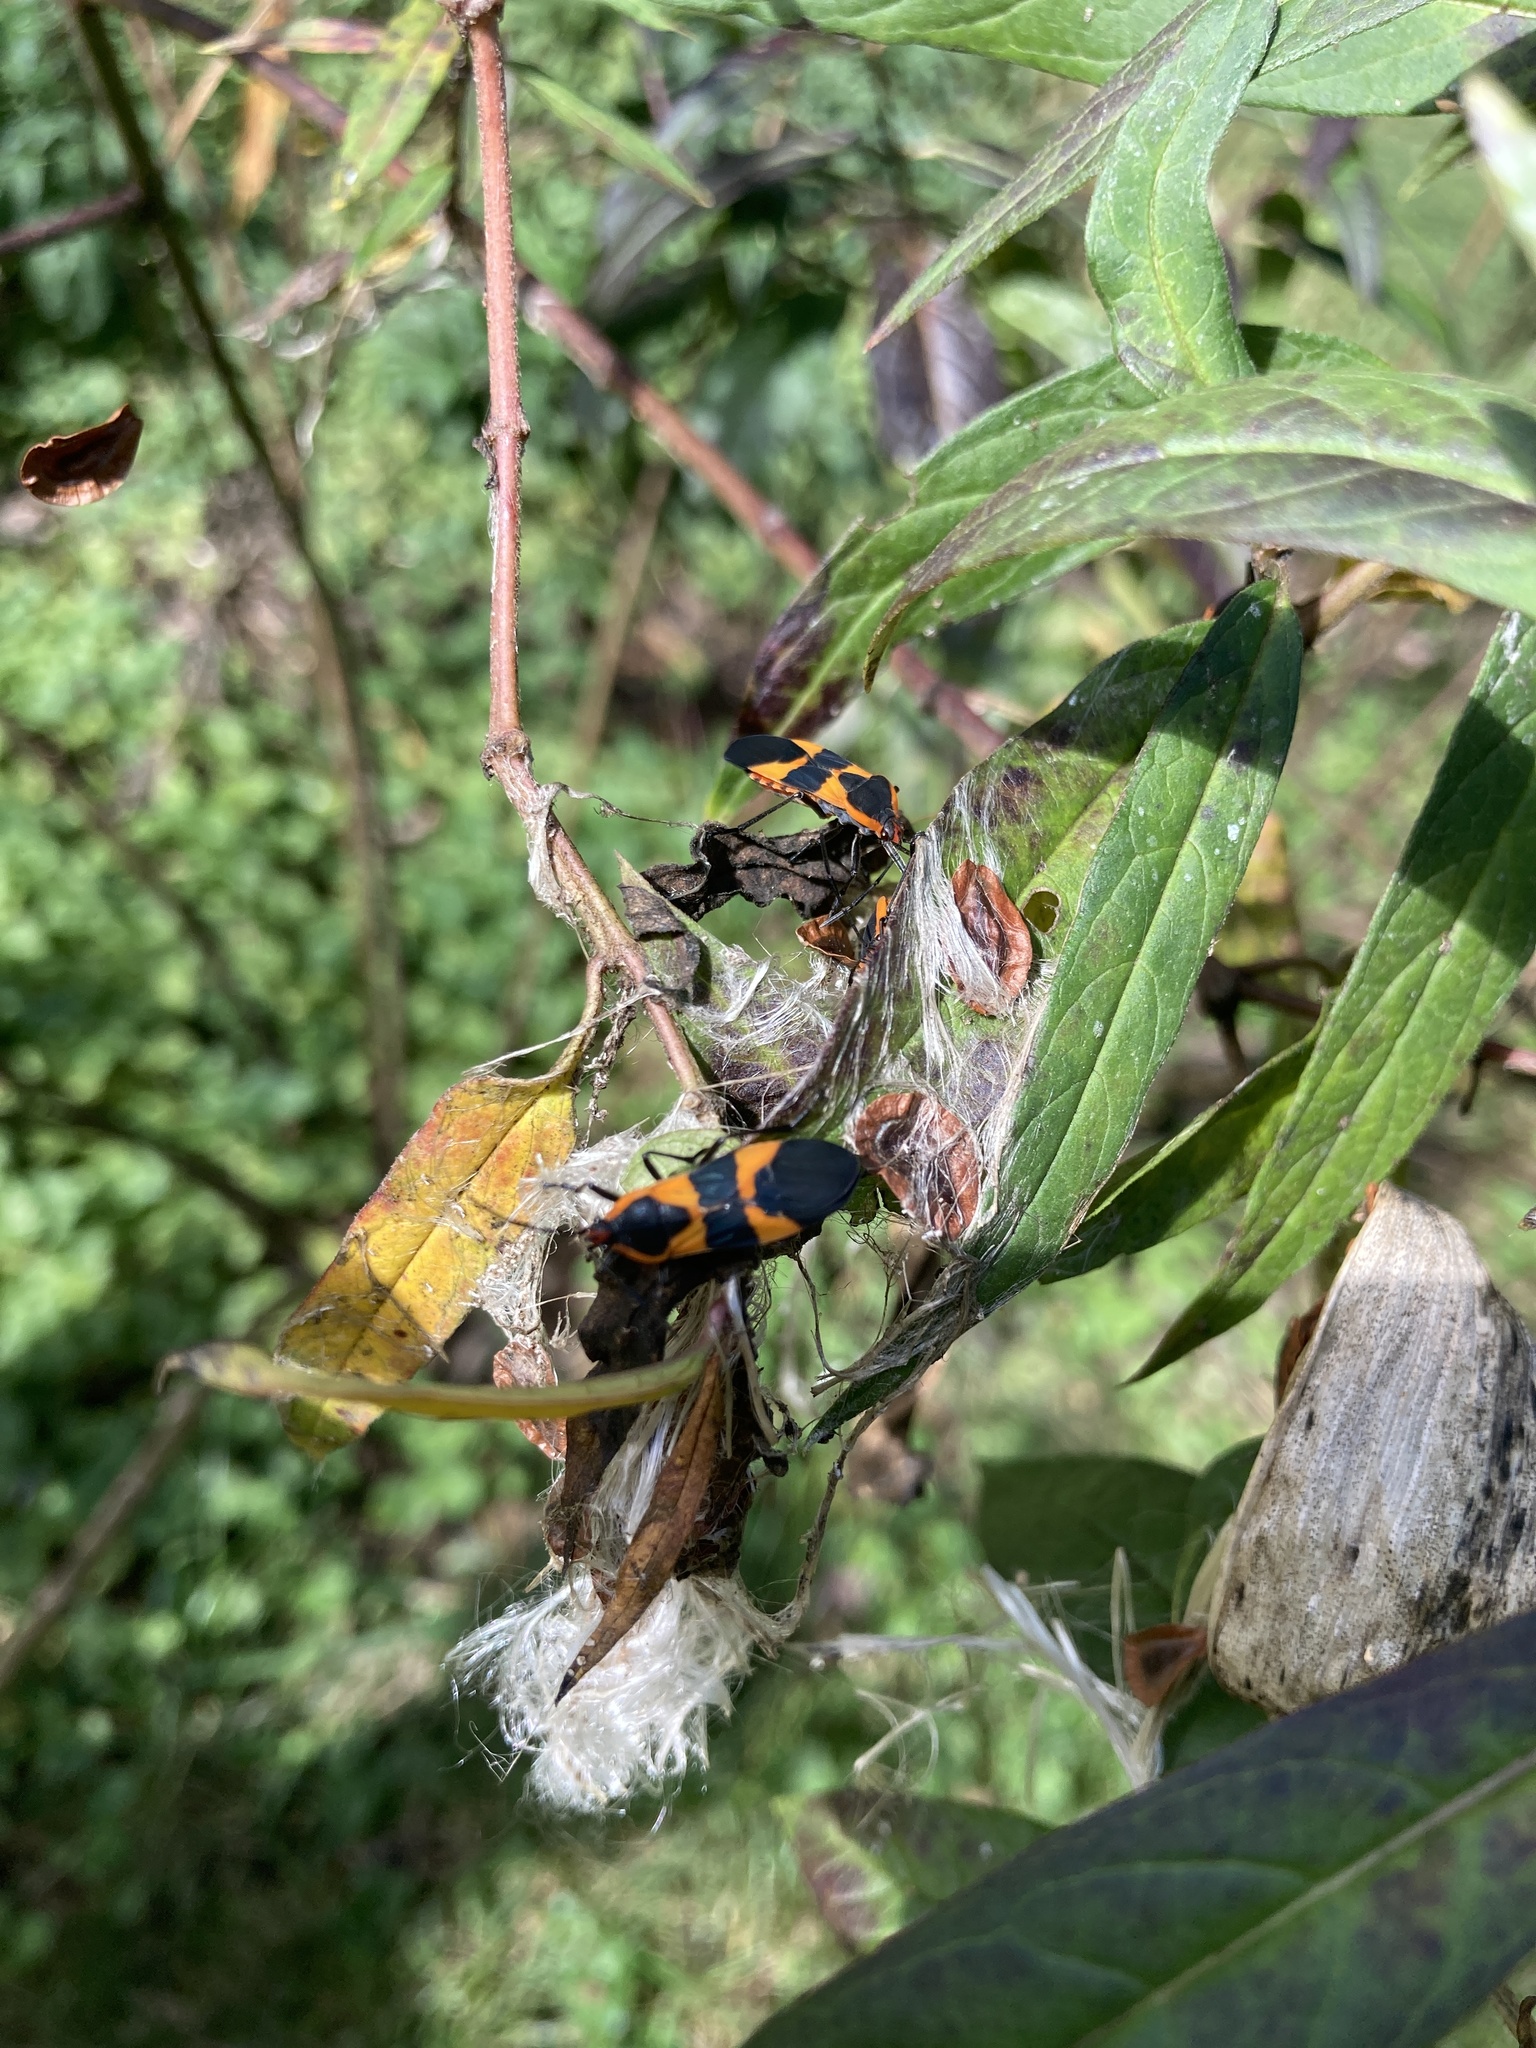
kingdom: Animalia
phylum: Arthropoda
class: Insecta
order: Hemiptera
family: Lygaeidae
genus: Oncopeltus
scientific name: Oncopeltus fasciatus
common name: Large milkweed bug
